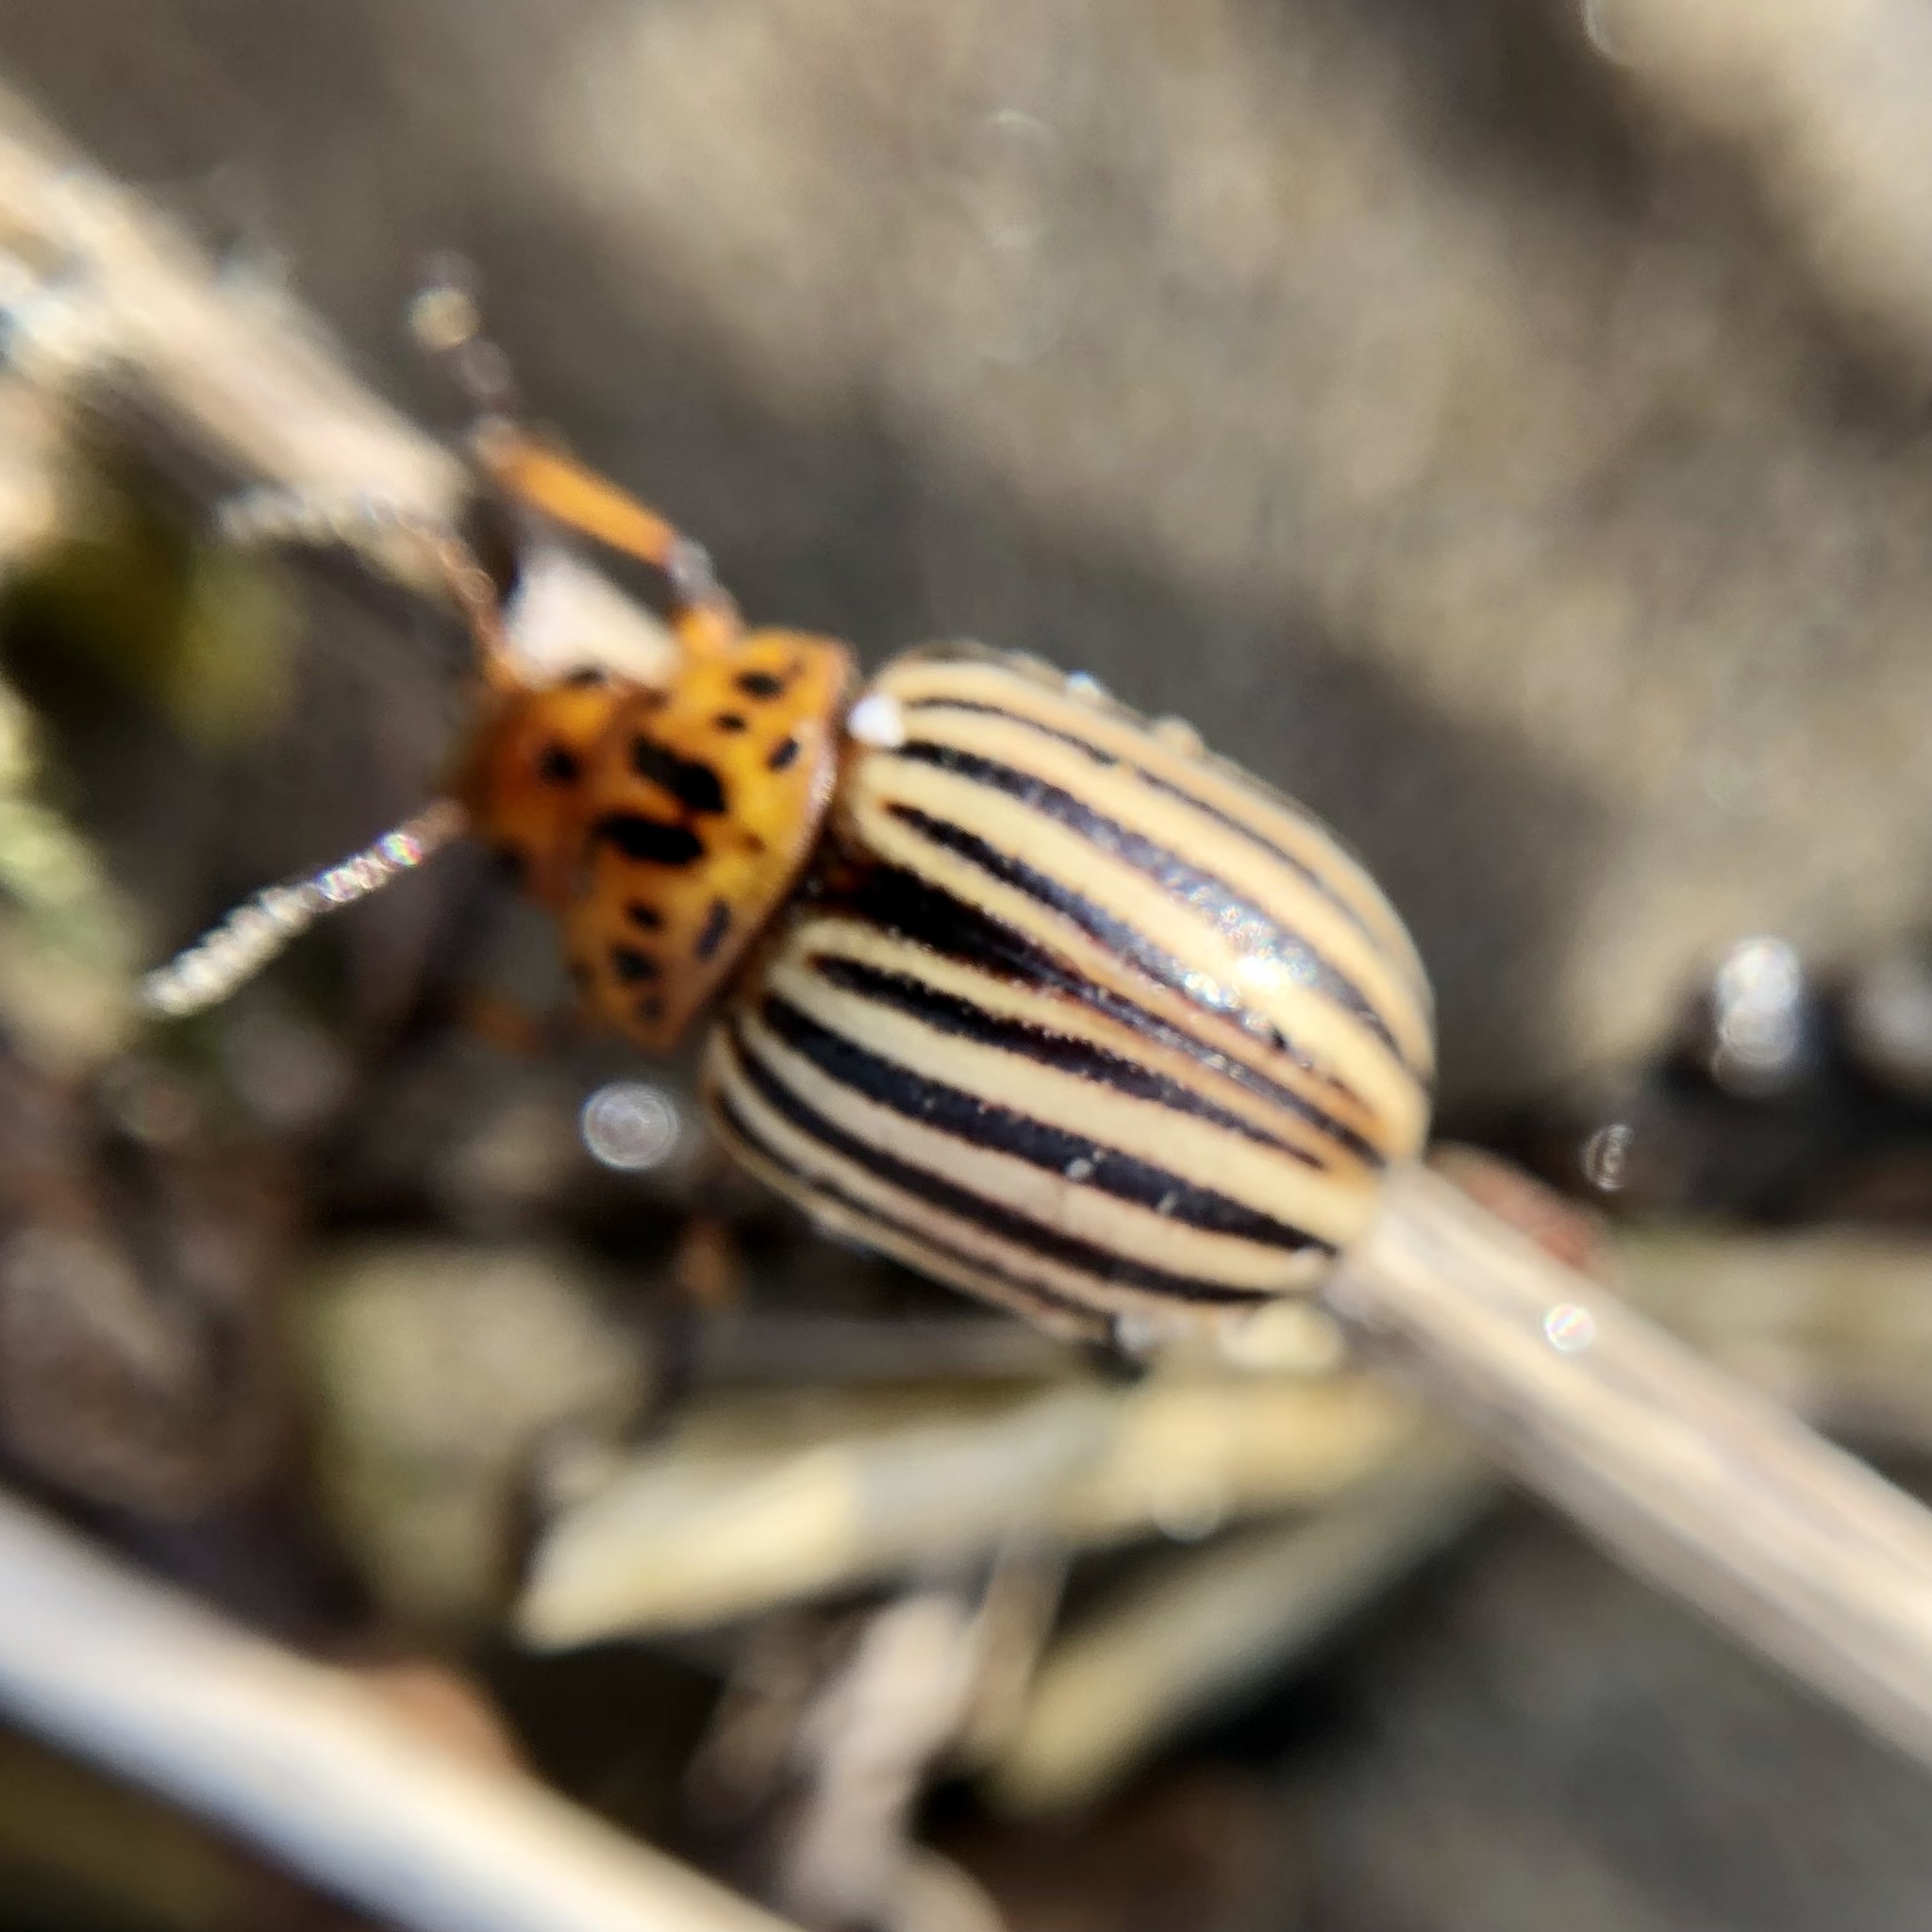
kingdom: Animalia
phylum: Arthropoda
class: Insecta
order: Coleoptera
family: Chrysomelidae
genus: Leptinotarsa
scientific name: Leptinotarsa decemlineata
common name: Colorado potato beetle
